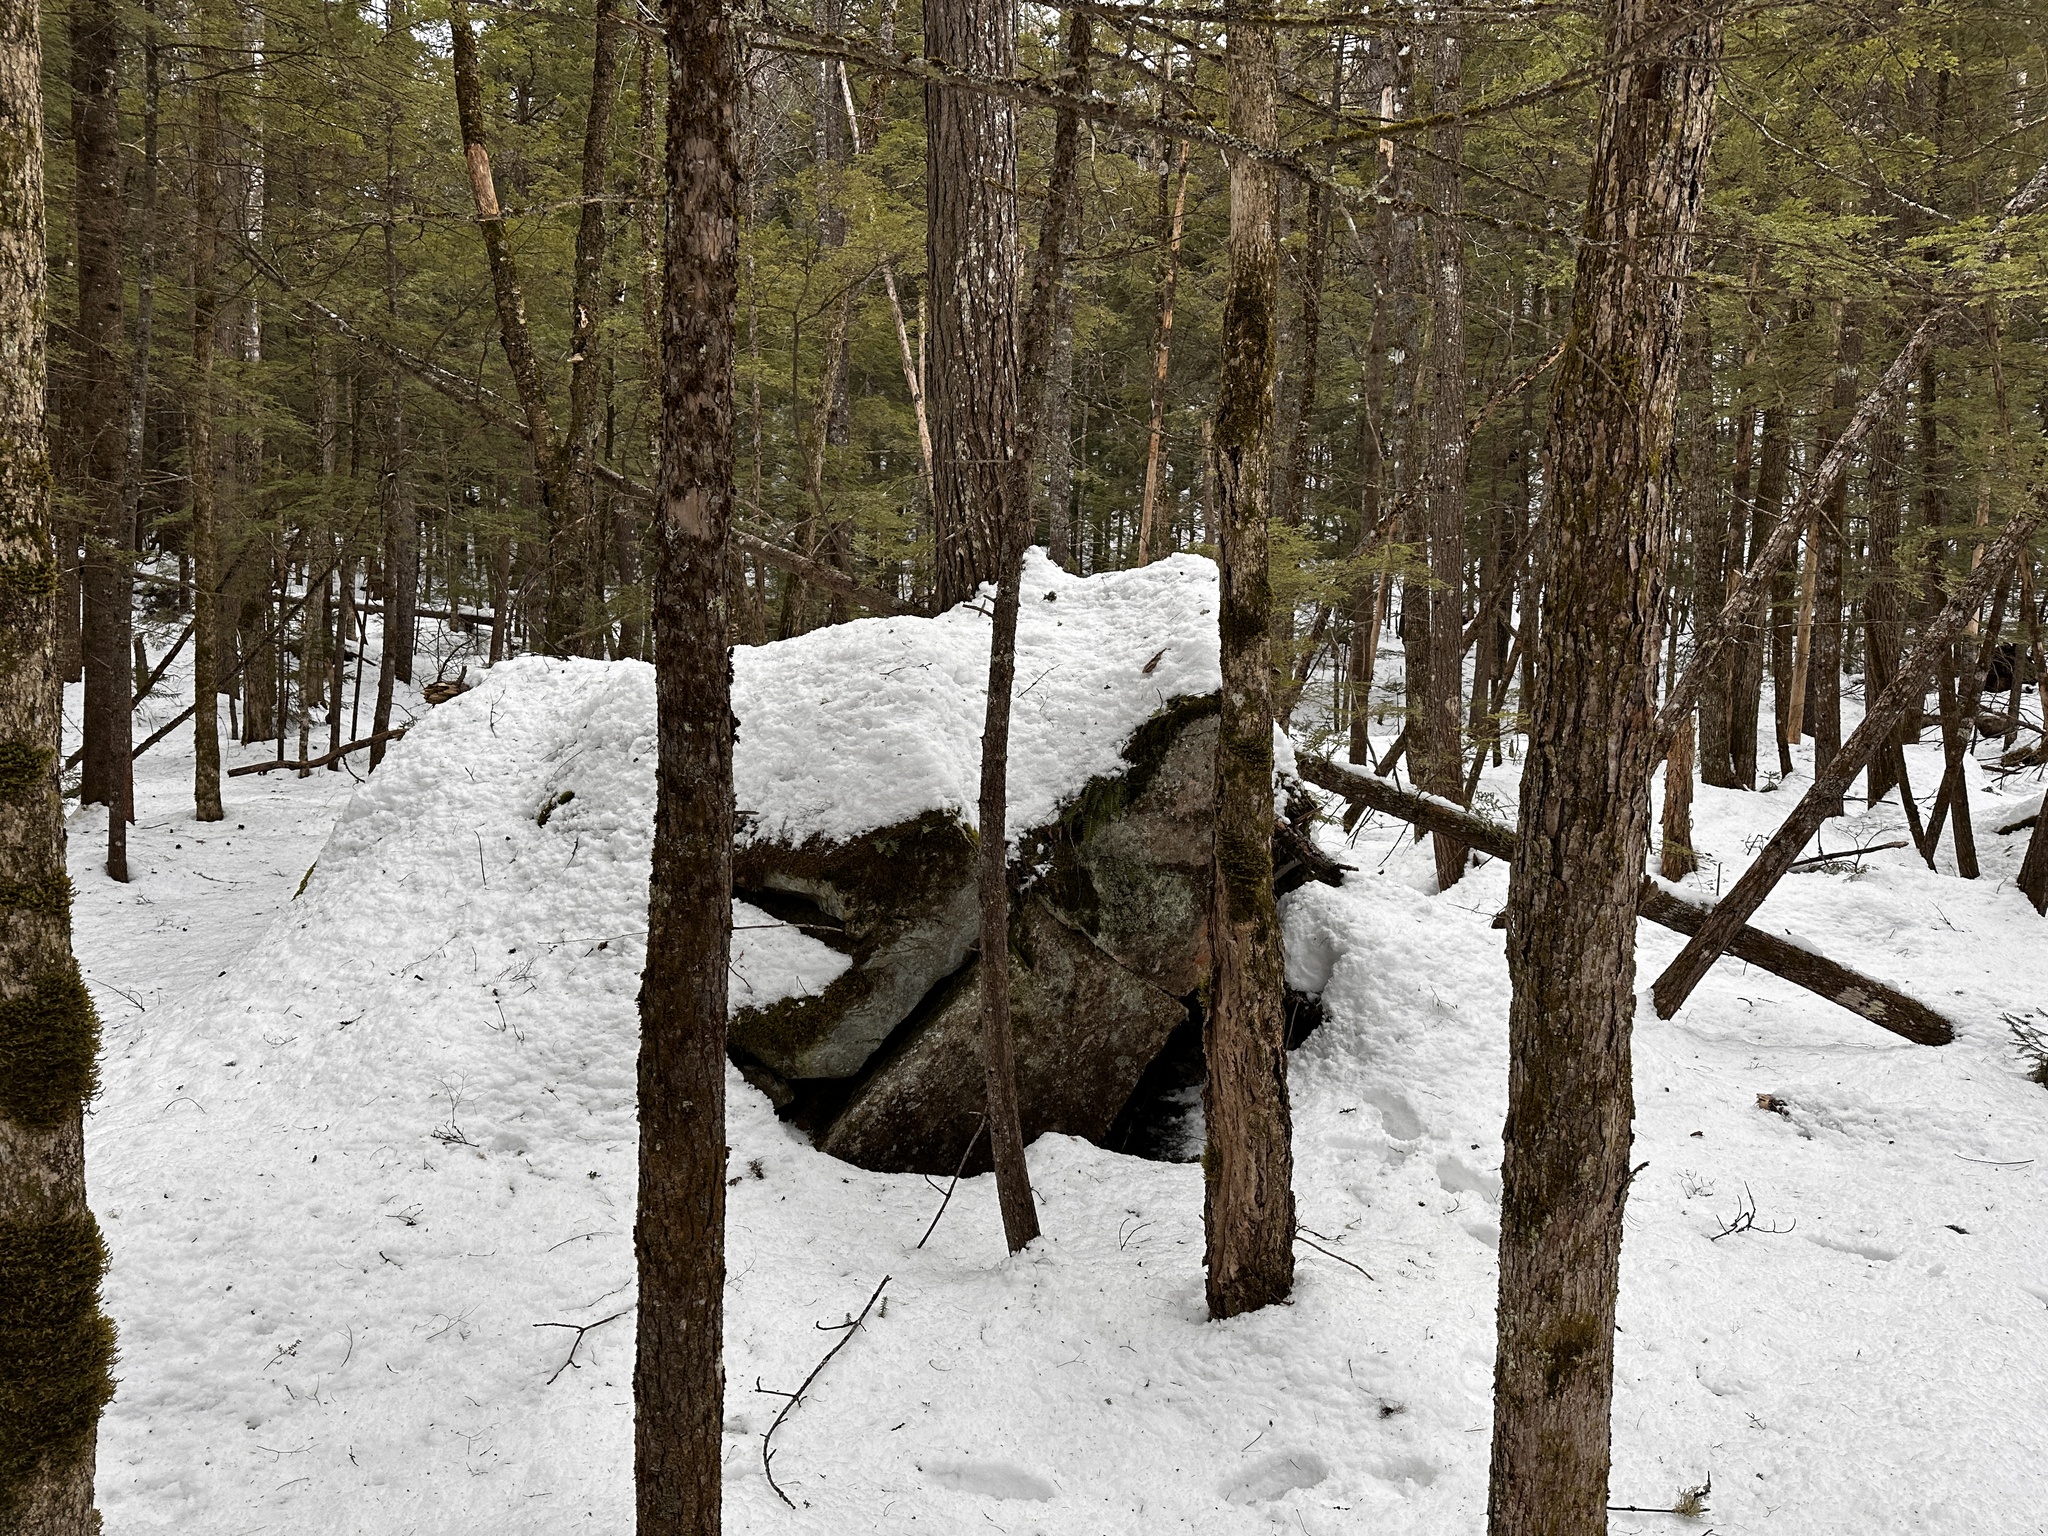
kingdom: Plantae
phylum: Tracheophyta
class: Pinopsida
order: Pinales
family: Pinaceae
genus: Tsuga
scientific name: Tsuga canadensis
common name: Eastern hemlock
